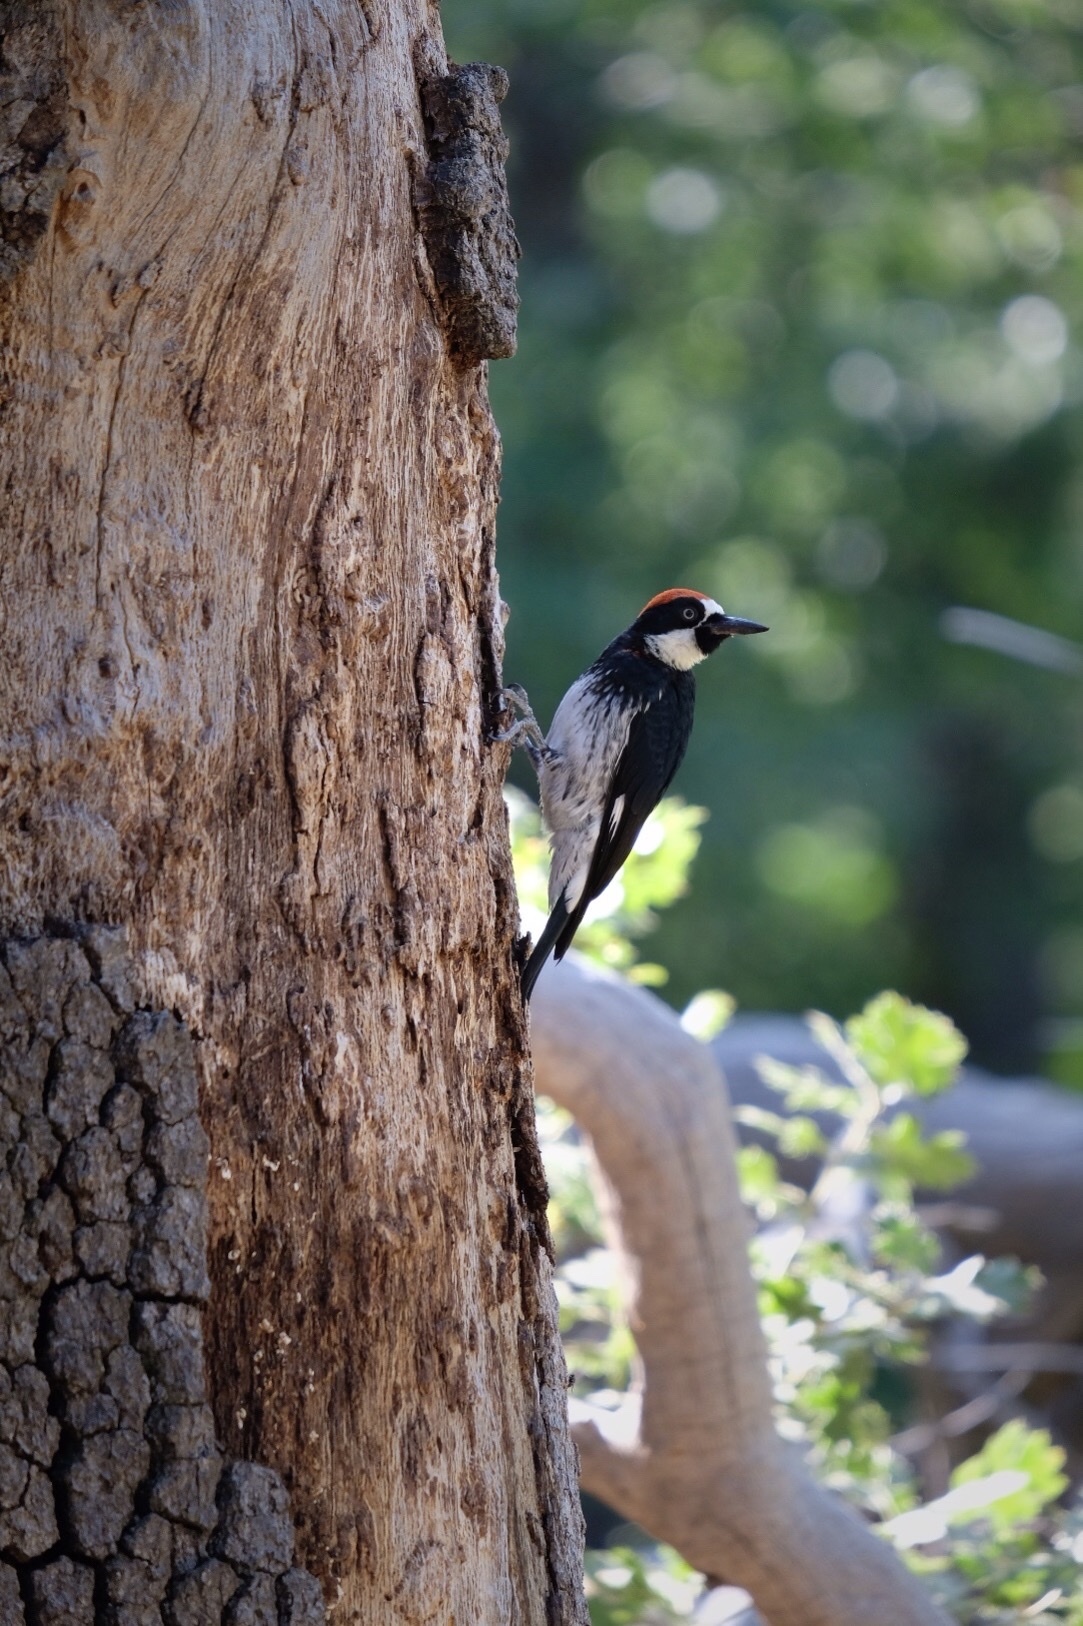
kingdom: Animalia
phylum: Chordata
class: Aves
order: Piciformes
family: Picidae
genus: Melanerpes
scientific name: Melanerpes formicivorus
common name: Acorn woodpecker
